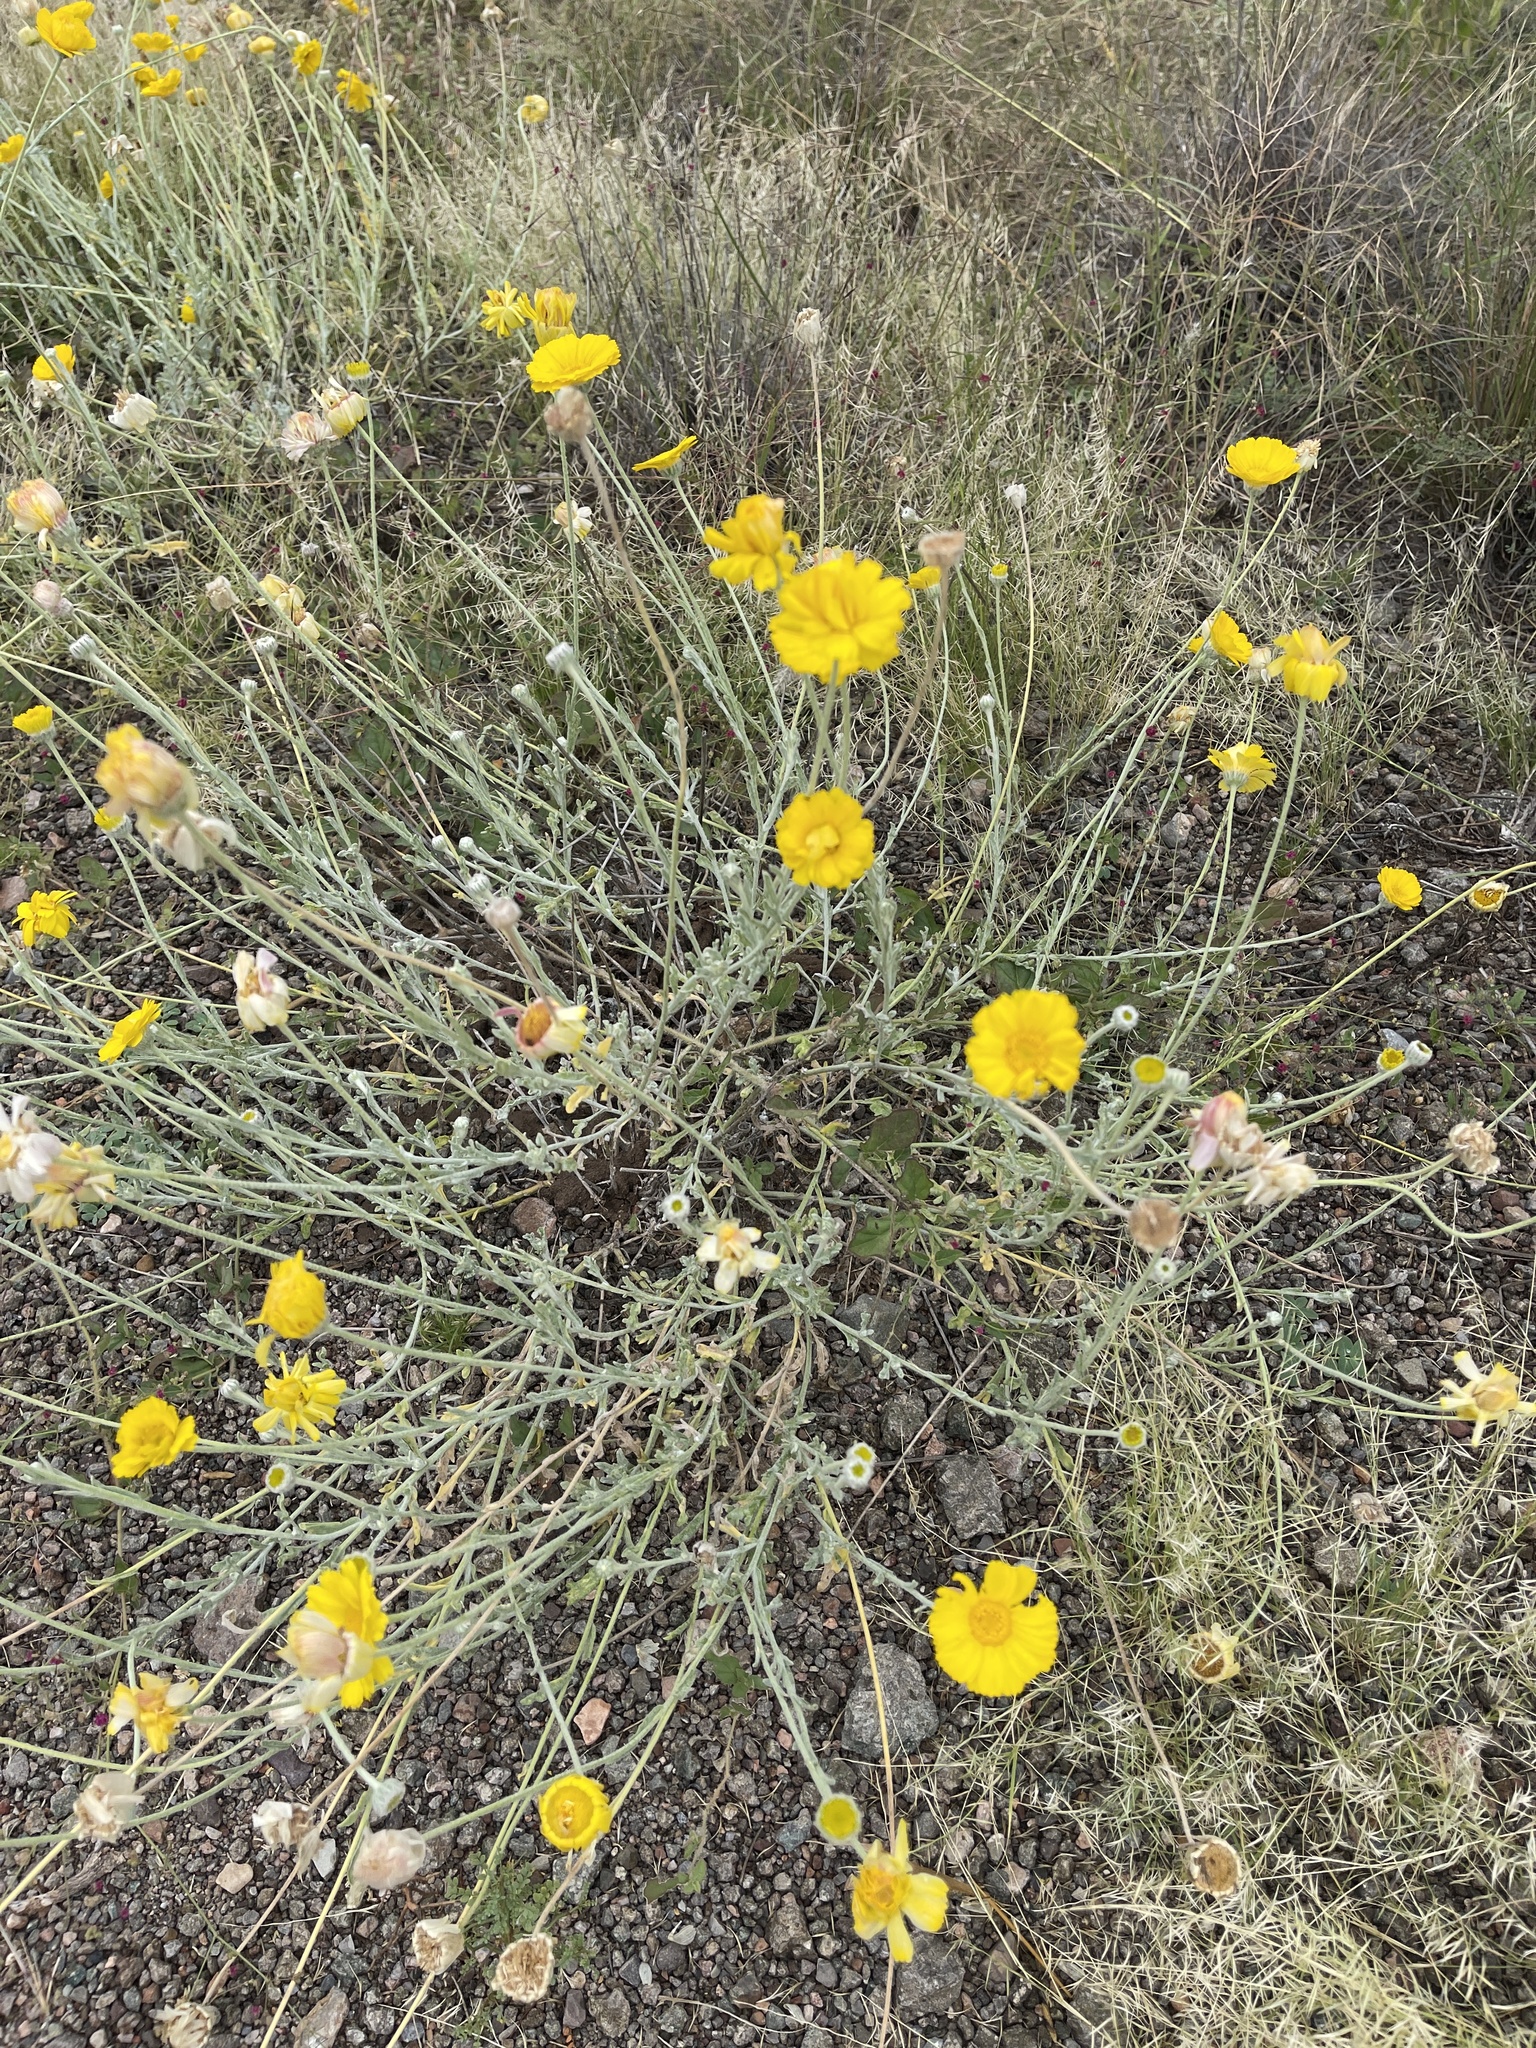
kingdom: Plantae
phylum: Tracheophyta
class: Magnoliopsida
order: Asterales
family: Asteraceae
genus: Baileya
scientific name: Baileya multiradiata
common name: Desert-marigold
